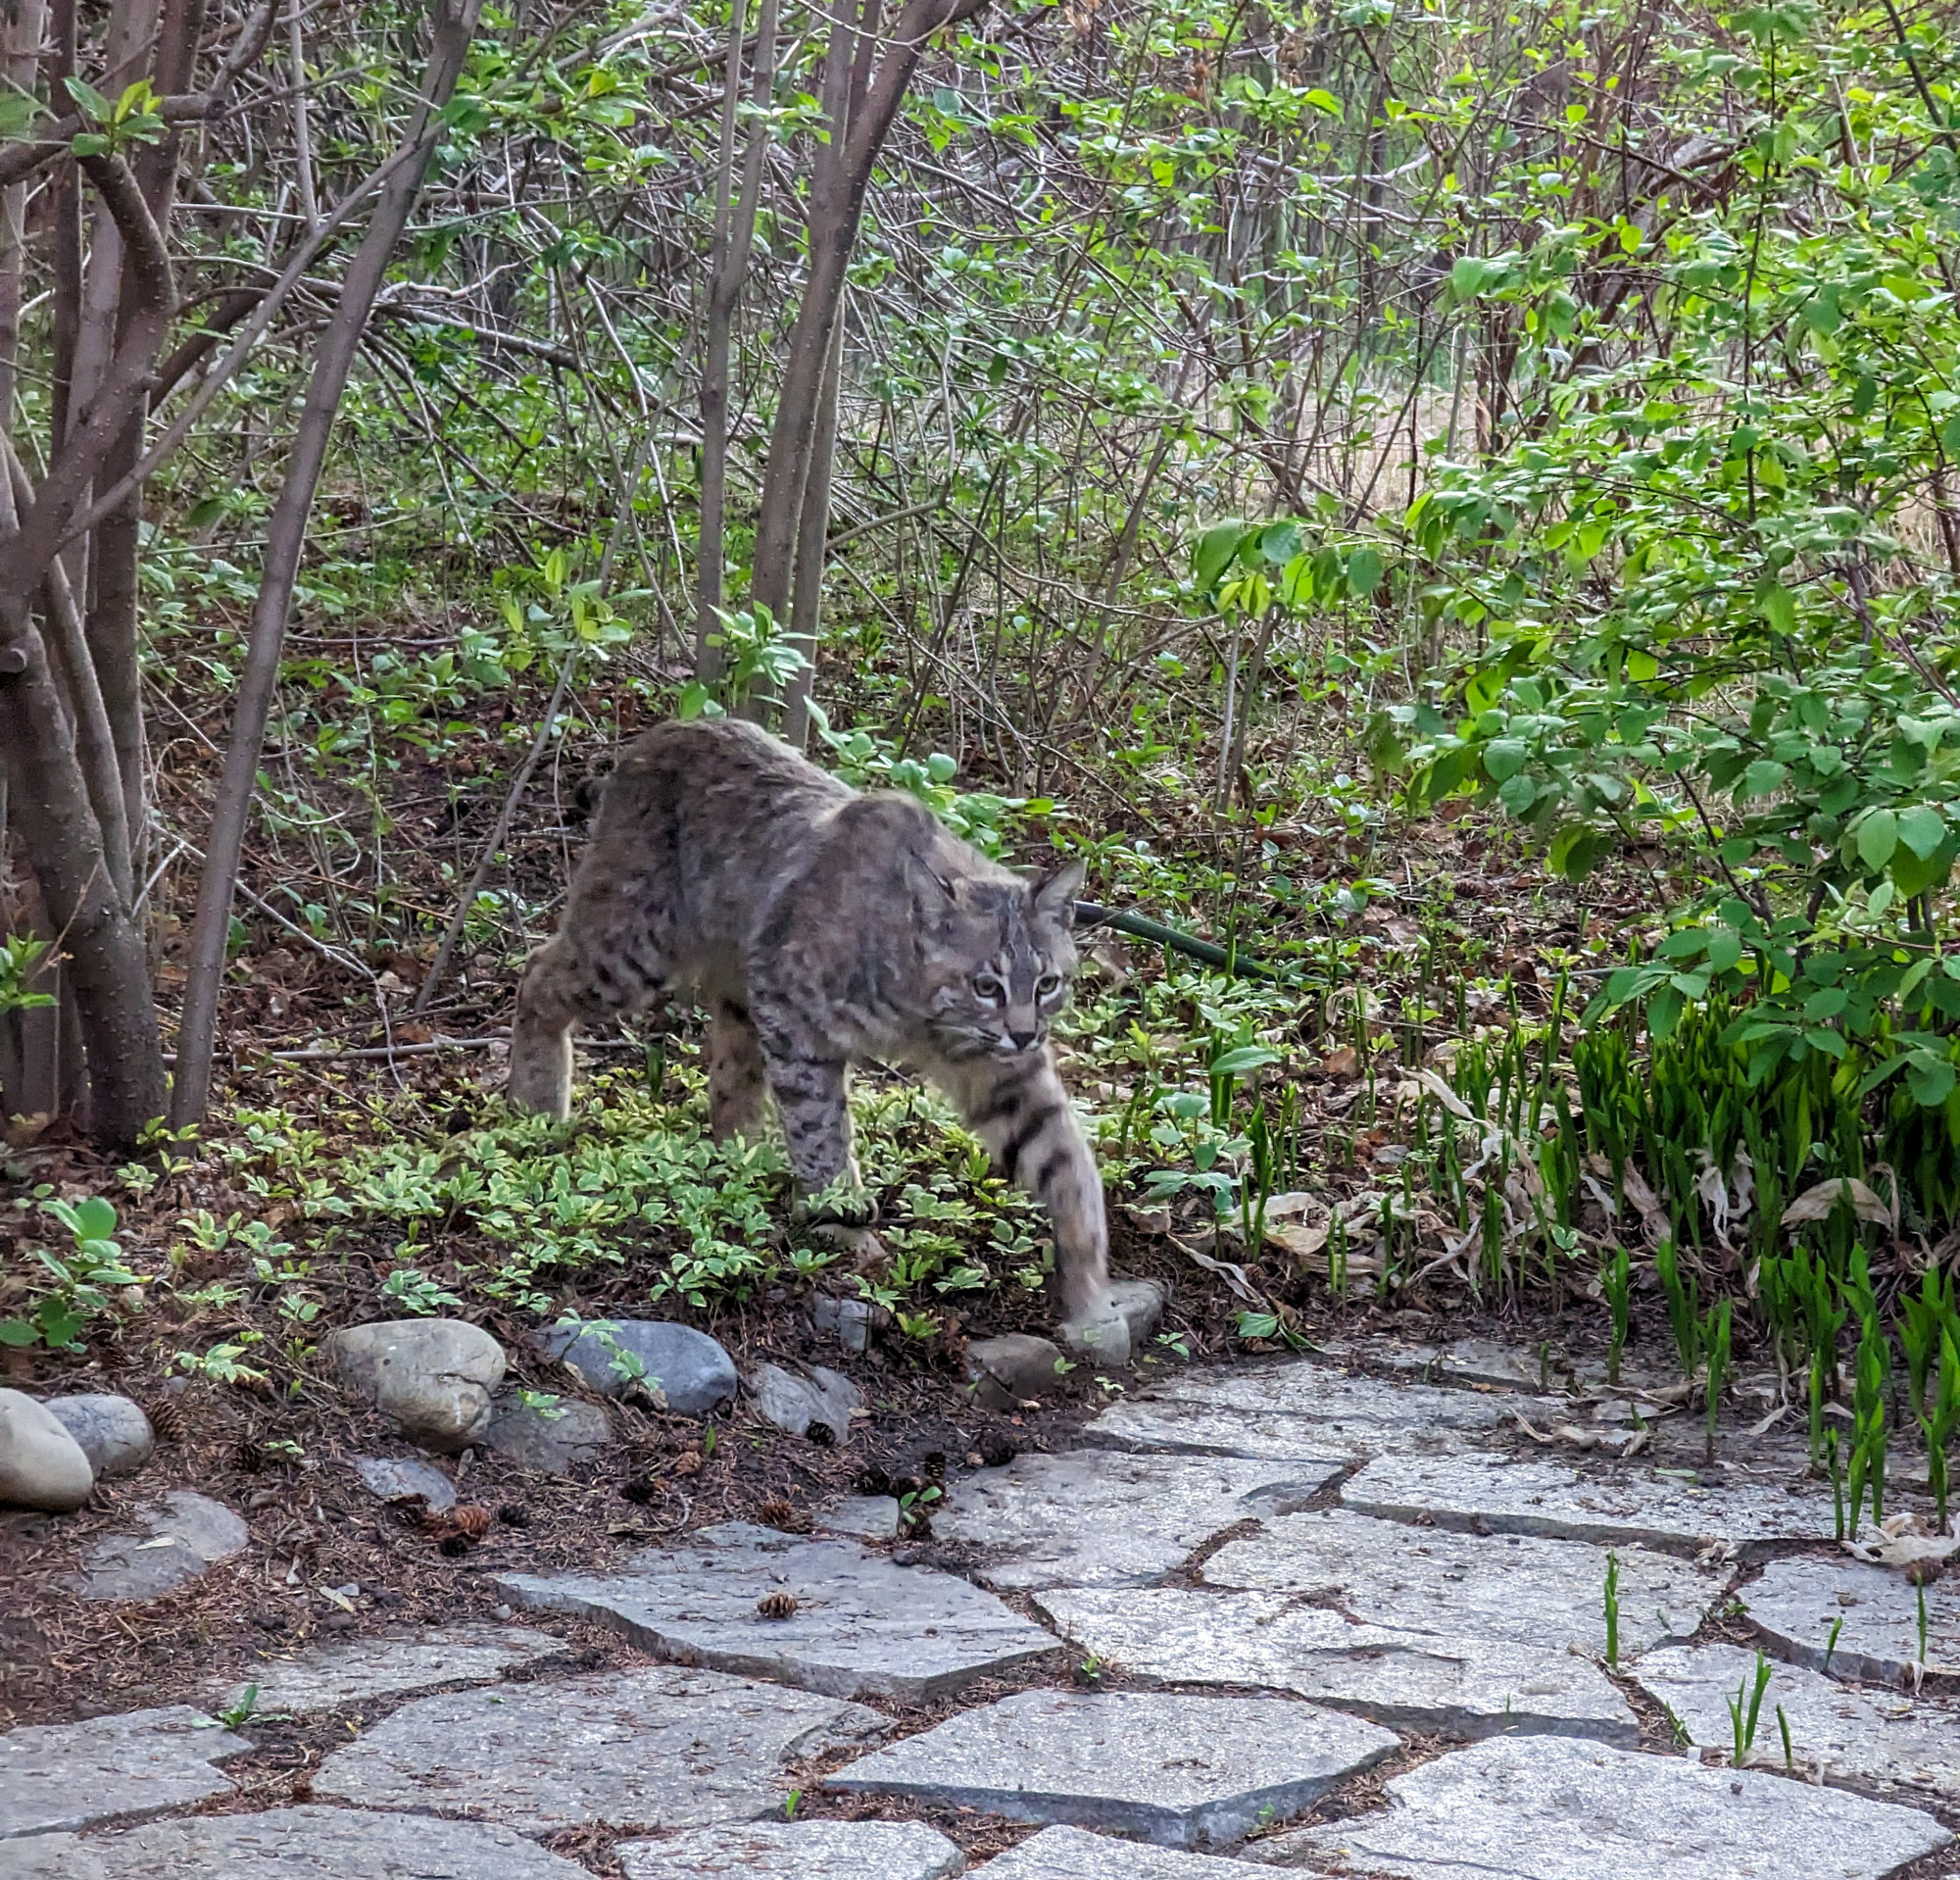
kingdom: Animalia
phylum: Chordata
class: Mammalia
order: Carnivora
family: Felidae
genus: Lynx
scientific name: Lynx rufus
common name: Bobcat
